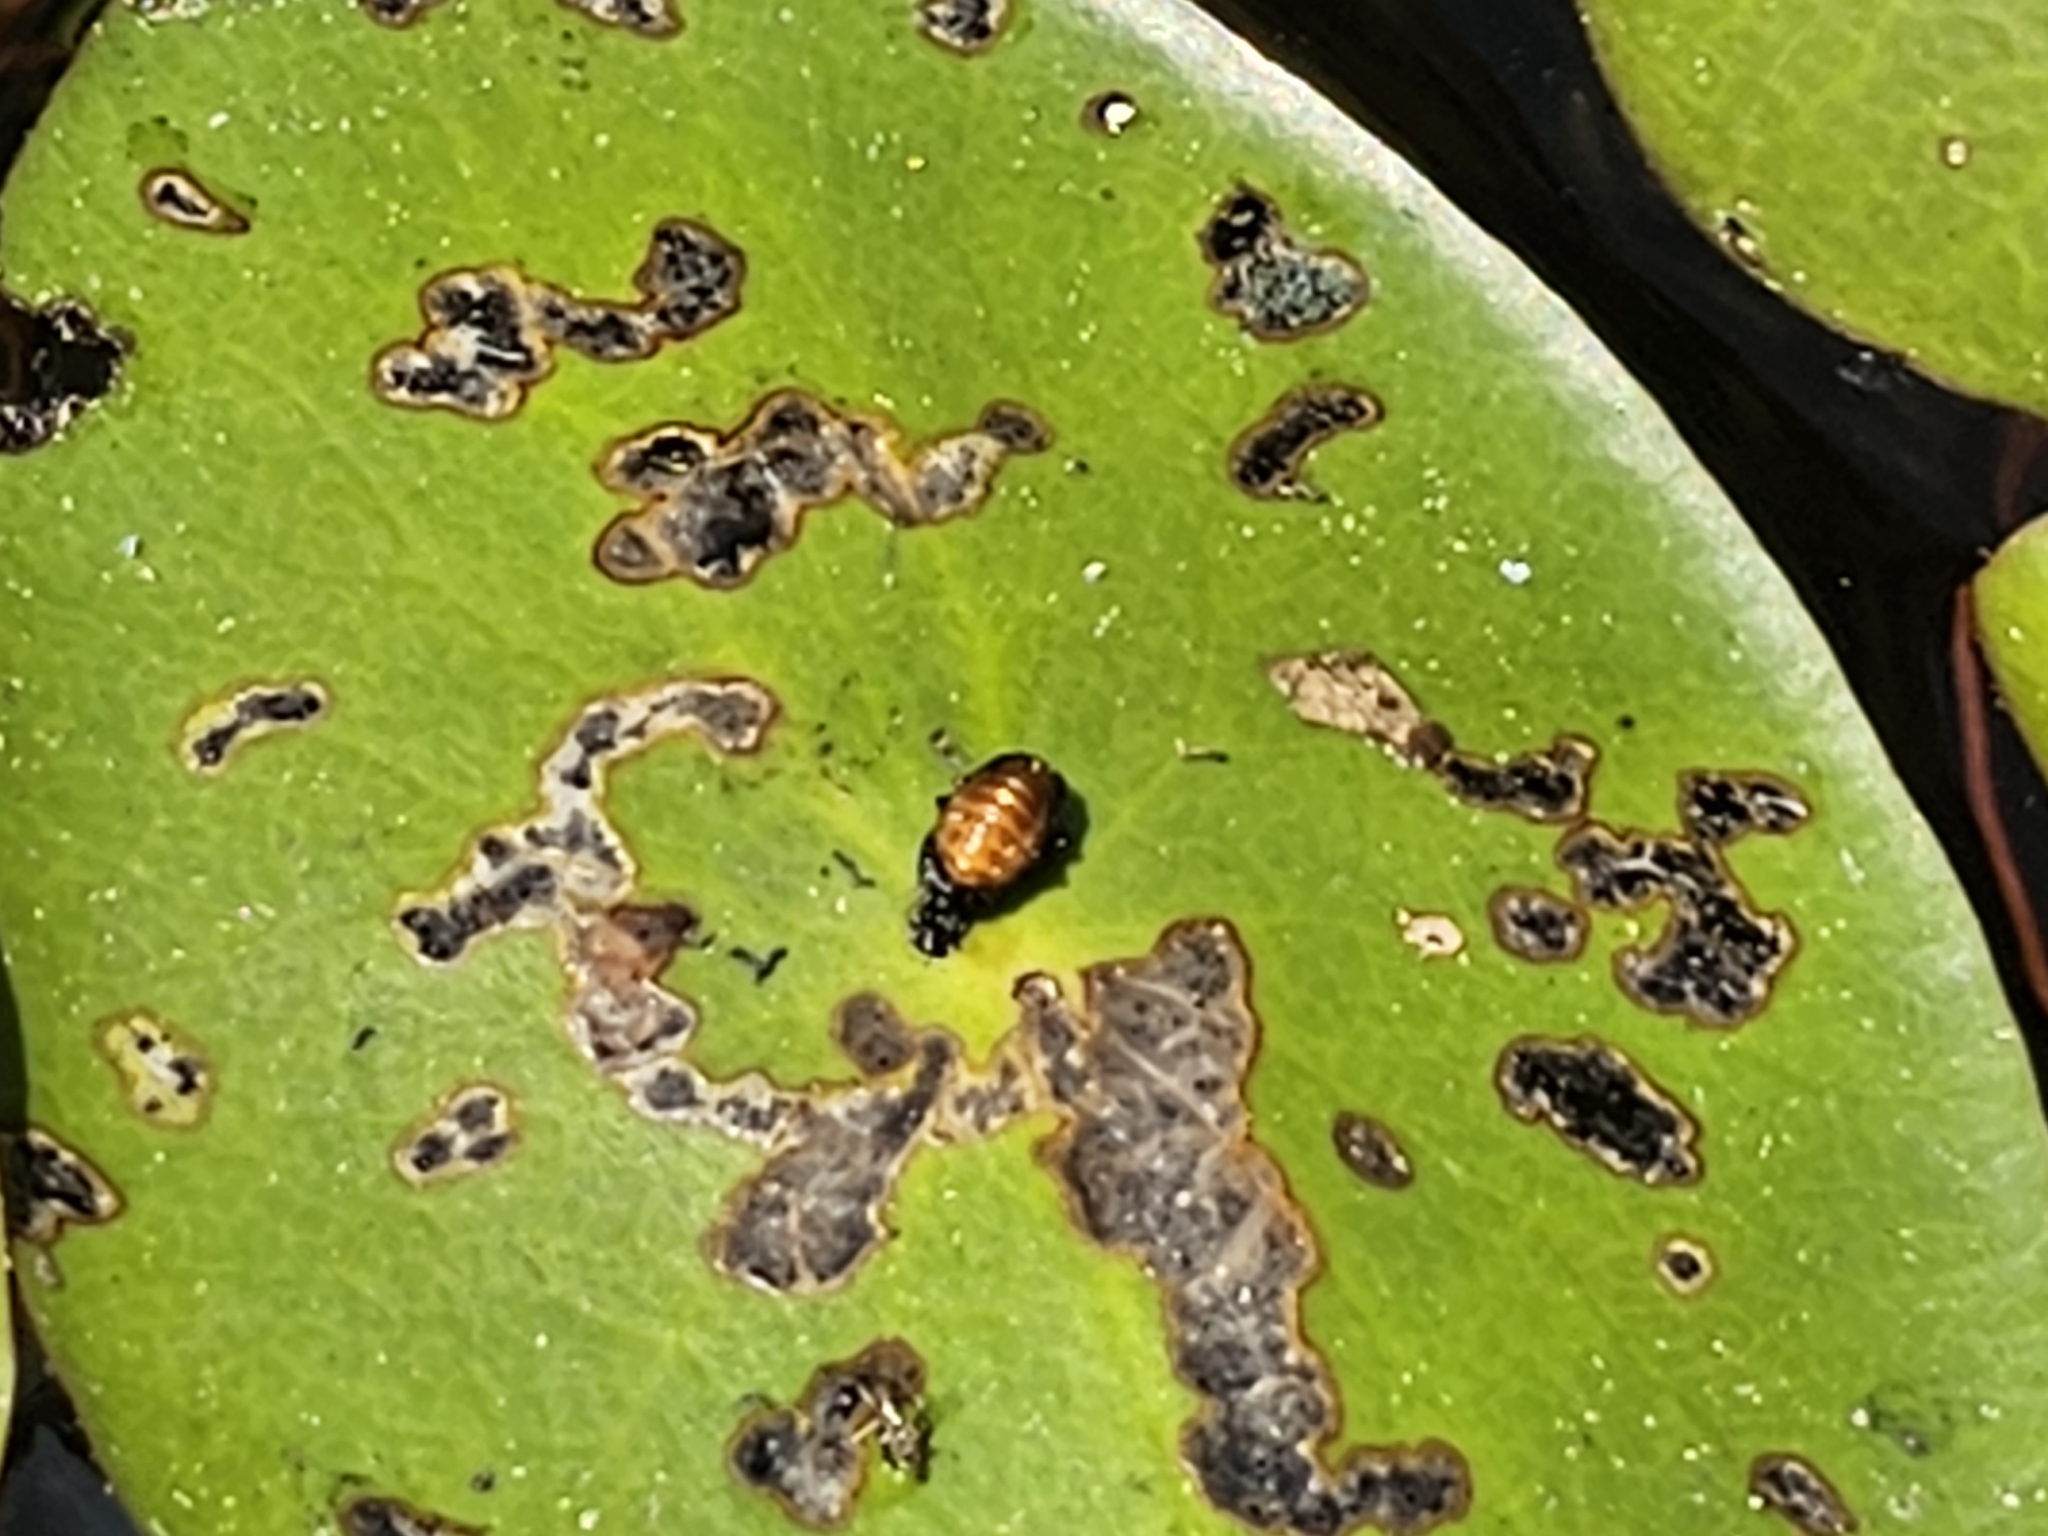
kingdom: Animalia
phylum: Arthropoda
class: Insecta
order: Coleoptera
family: Chrysomelidae
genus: Galerucella
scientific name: Galerucella nymphaeae
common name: Leaf beetle
